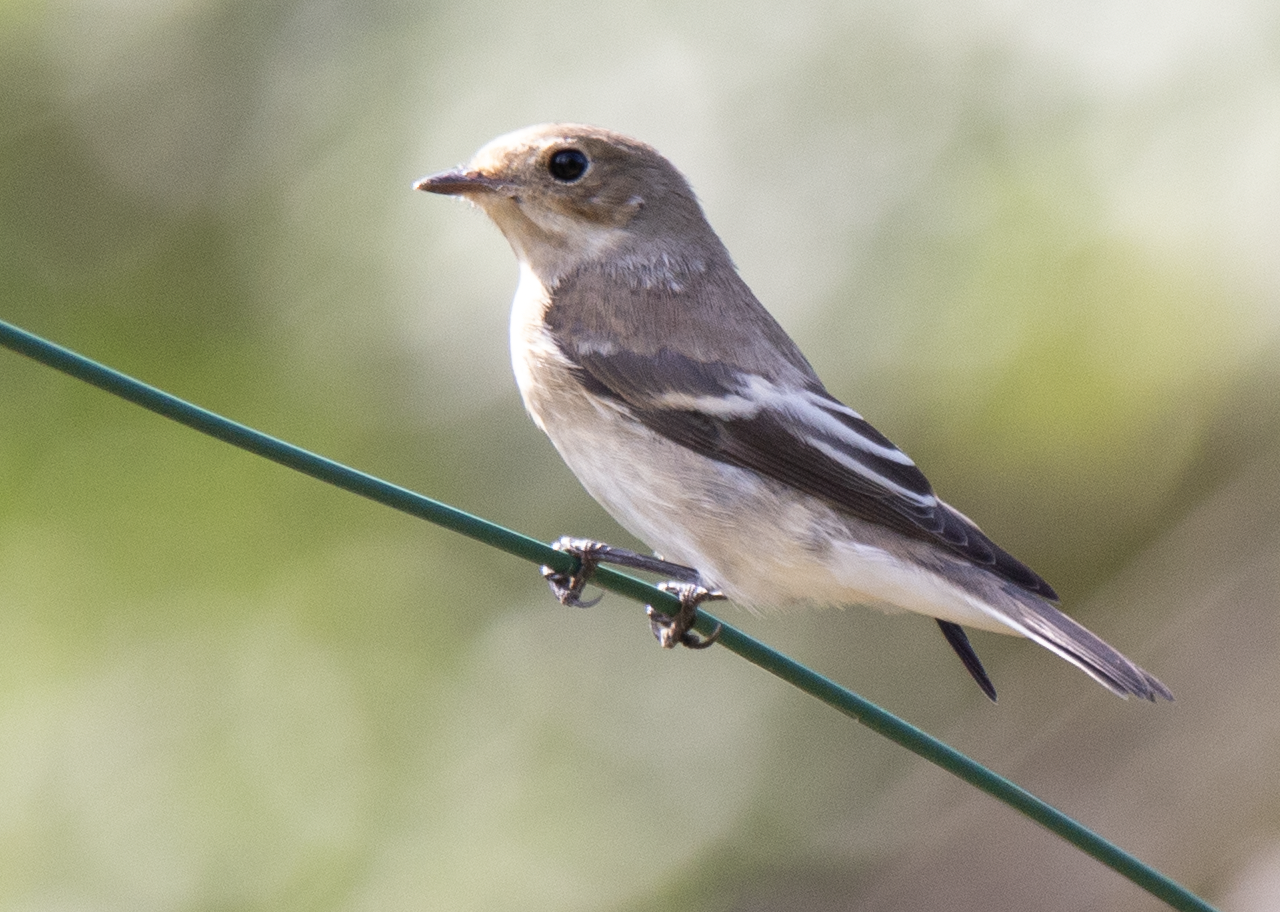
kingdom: Animalia
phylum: Chordata
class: Aves
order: Passeriformes
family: Muscicapidae
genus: Ficedula
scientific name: Ficedula hypoleuca
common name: European pied flycatcher
